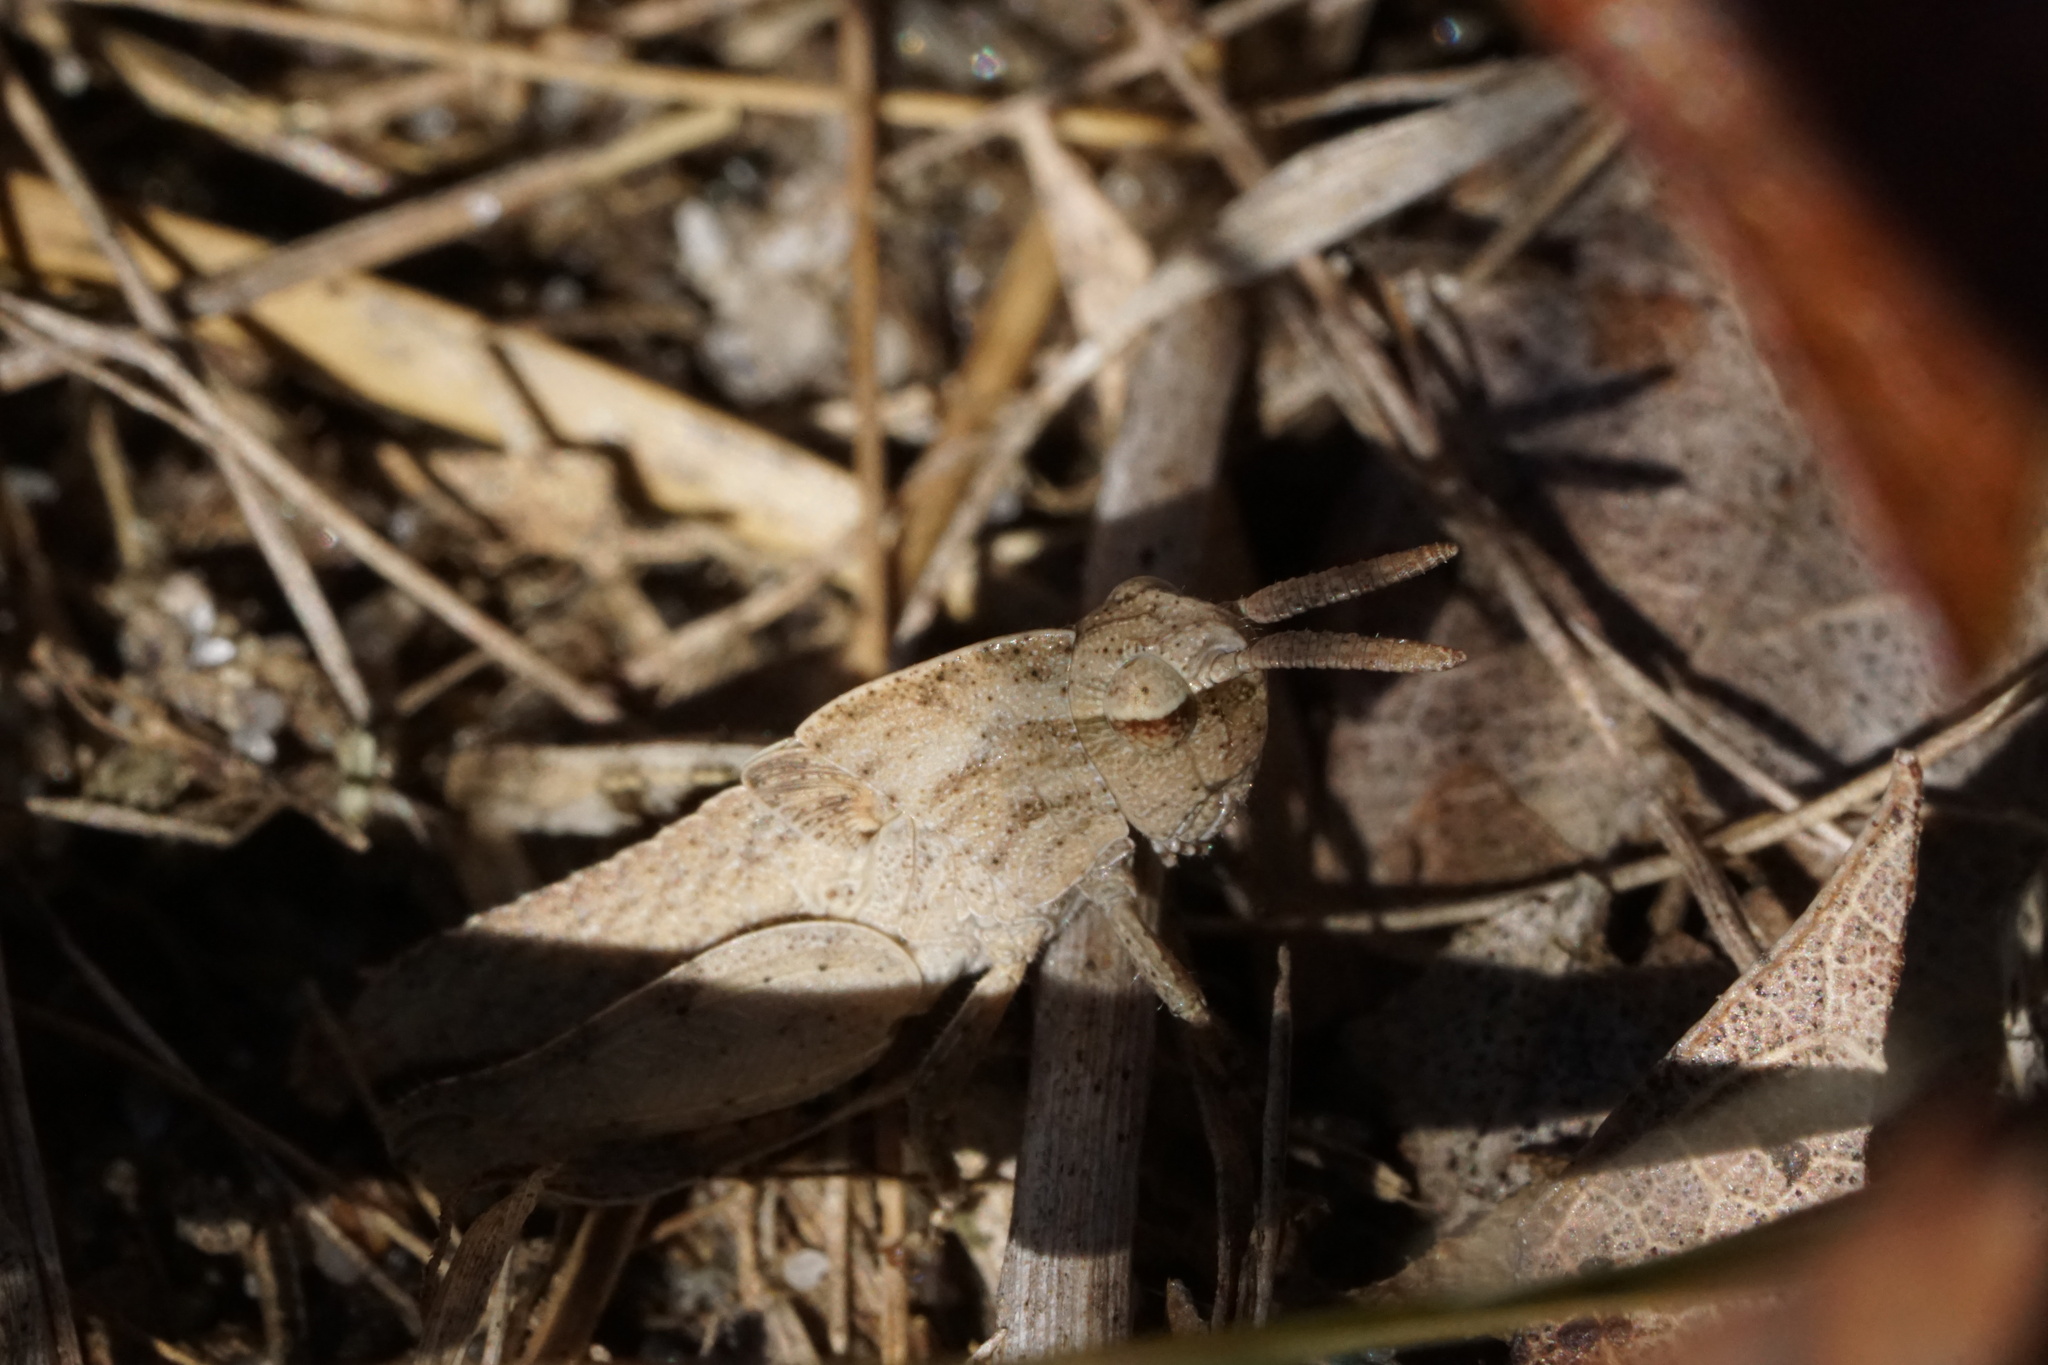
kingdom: Animalia
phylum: Arthropoda
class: Insecta
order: Orthoptera
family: Acrididae
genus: Chortophaga
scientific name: Chortophaga viridifasciata
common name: Green-striped grasshopper
